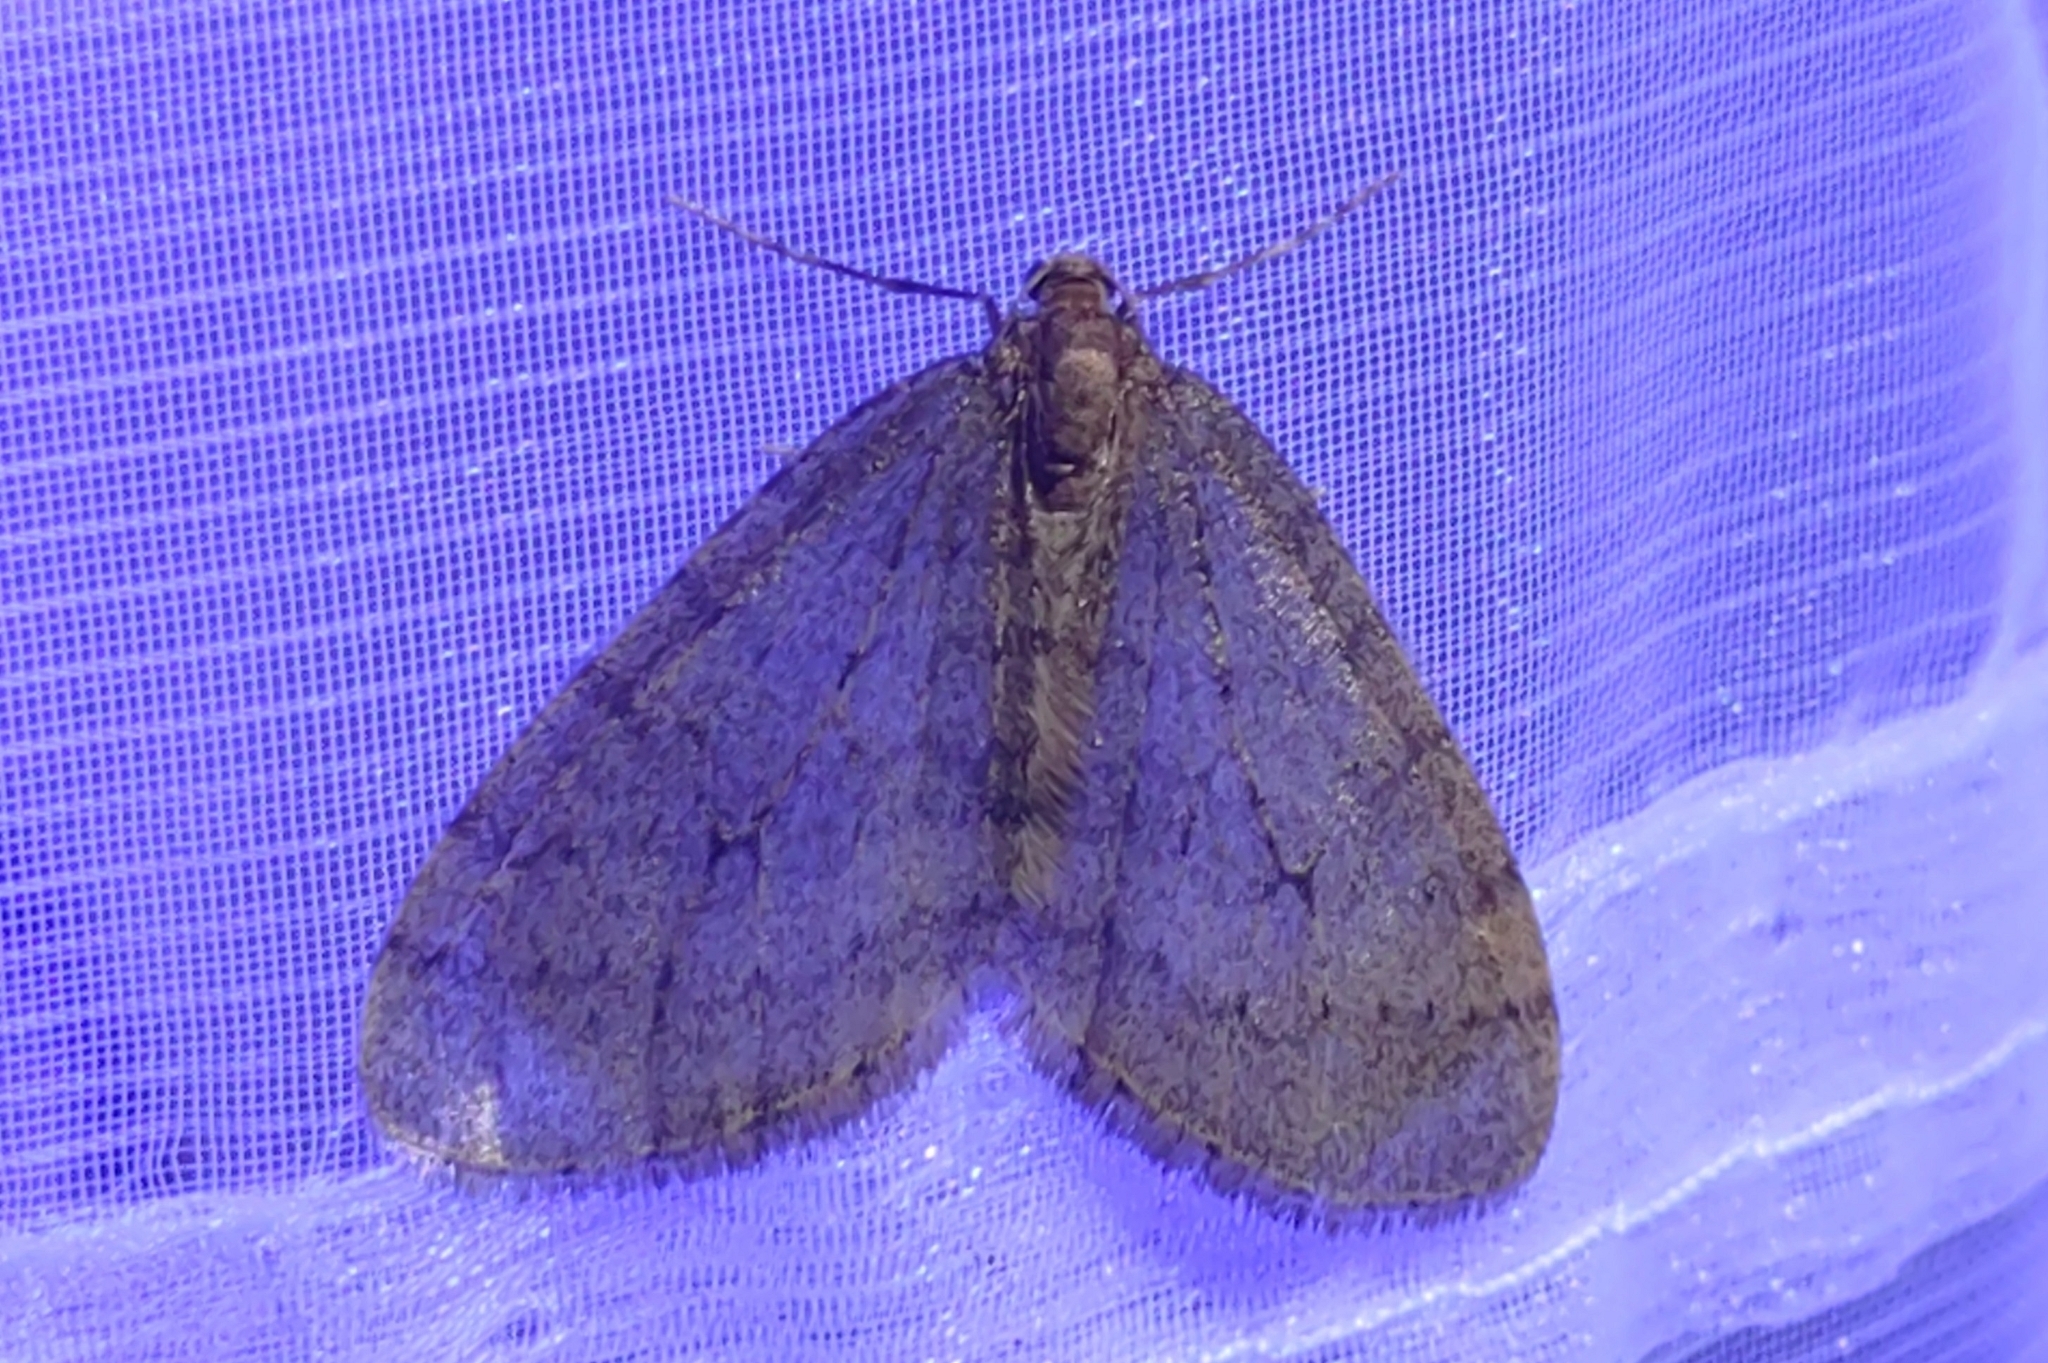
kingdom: Animalia
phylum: Arthropoda
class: Insecta
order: Lepidoptera
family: Geometridae
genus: Operophtera
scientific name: Operophtera brumata
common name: Winter moth
